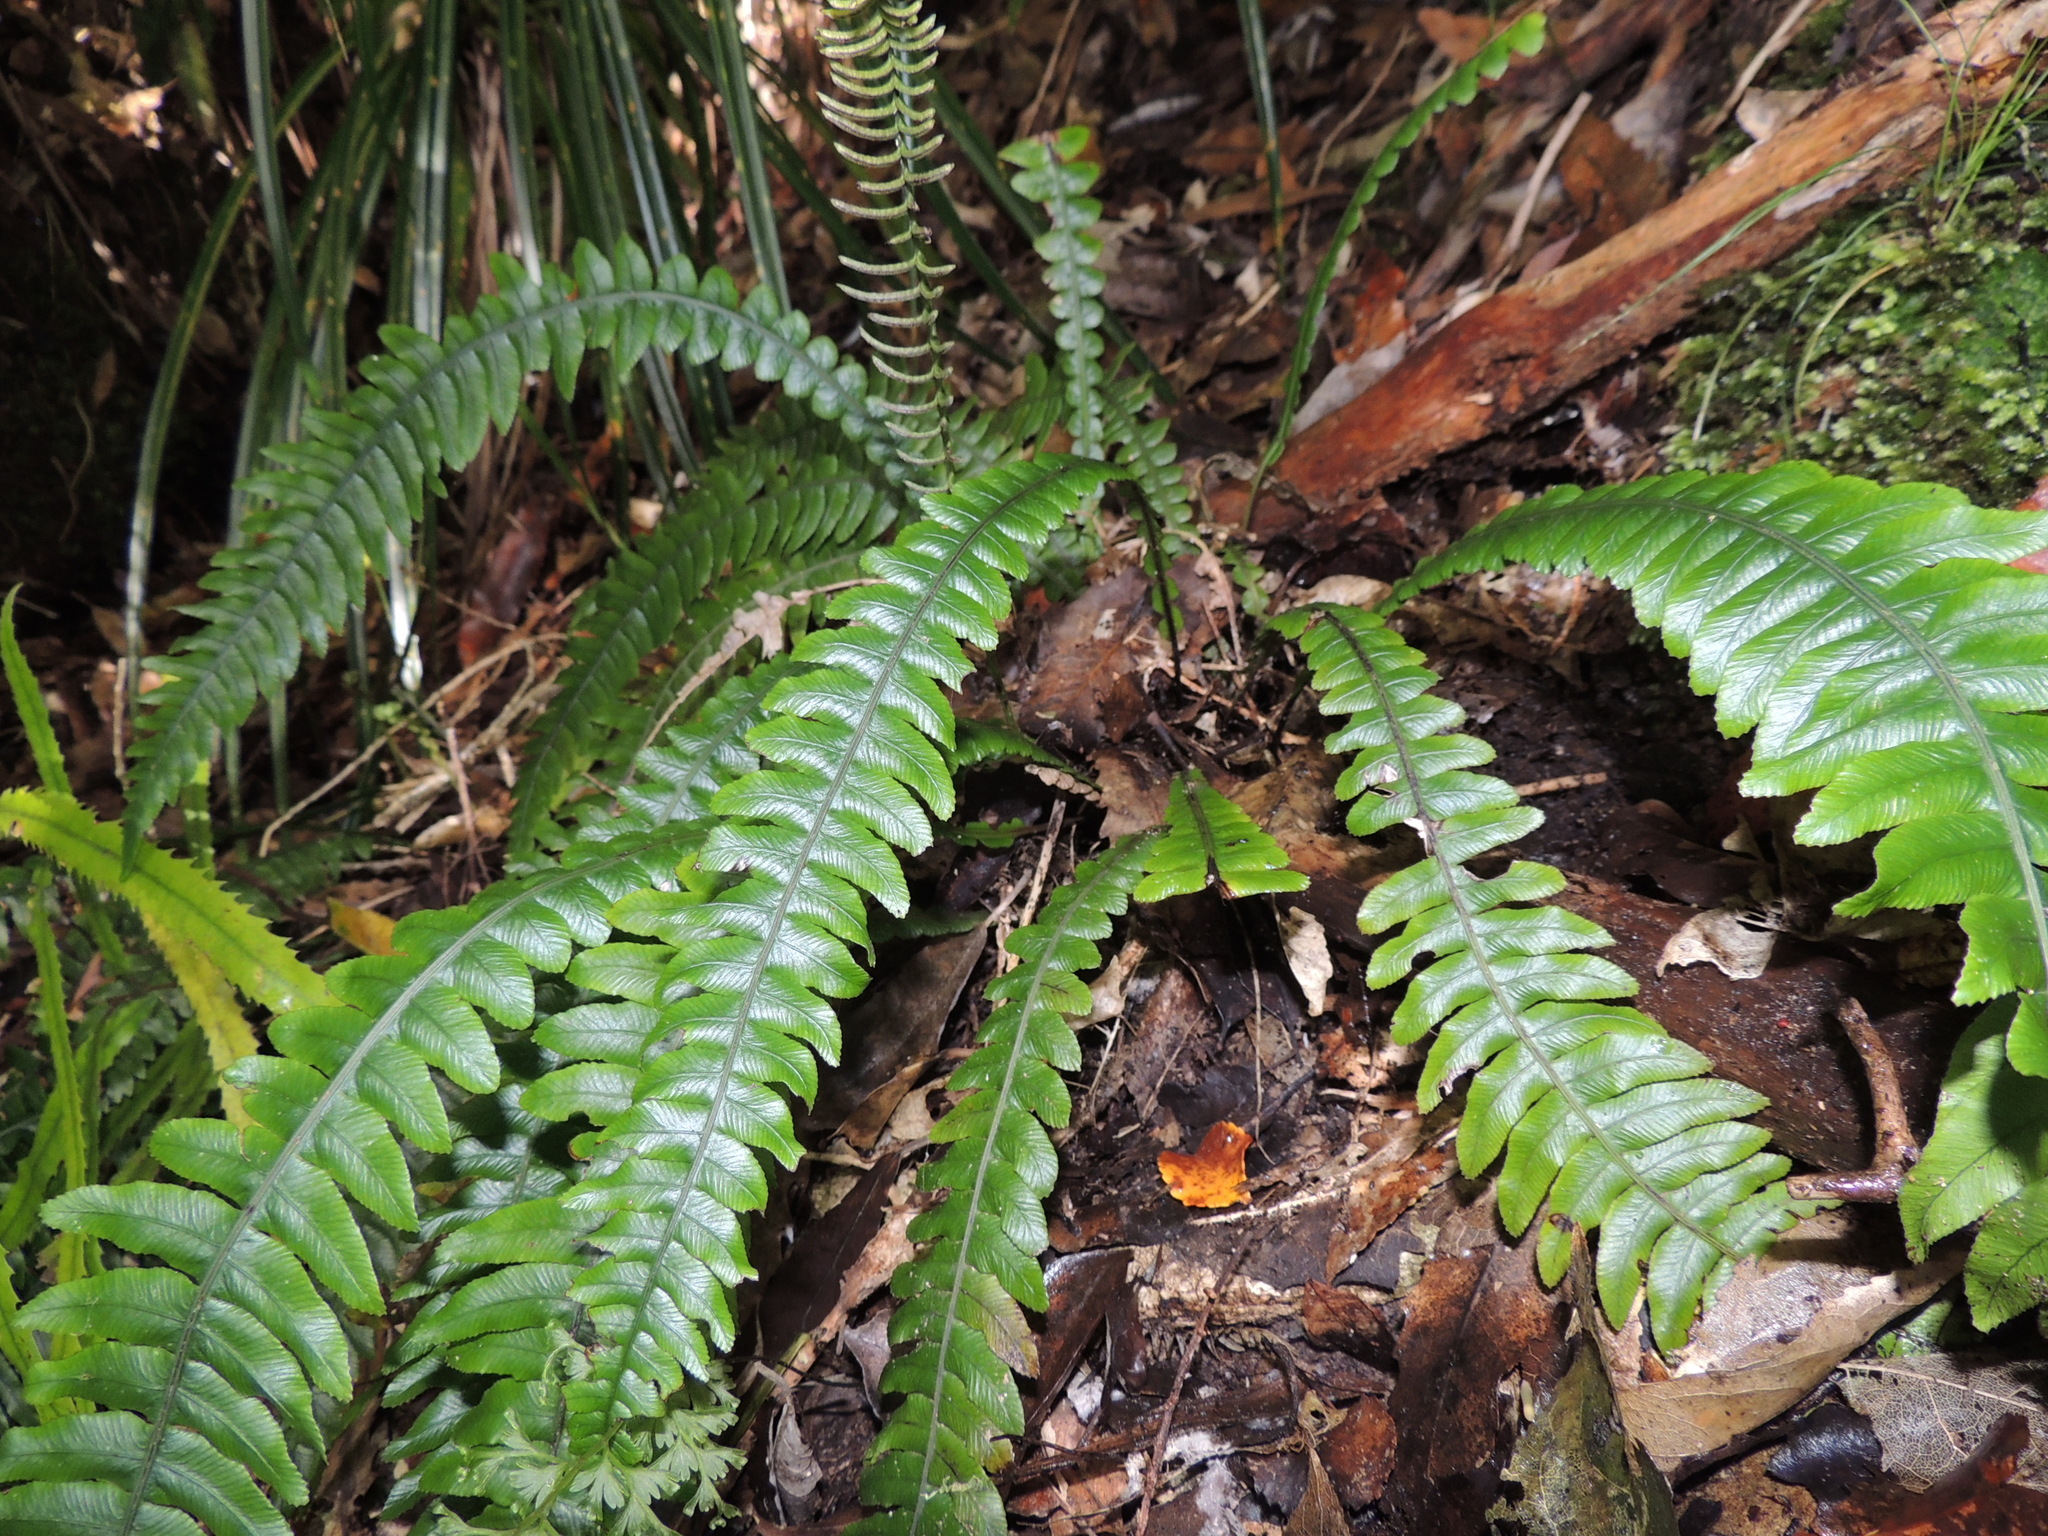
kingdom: Plantae
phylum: Tracheophyta
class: Polypodiopsida
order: Polypodiales
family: Blechnaceae
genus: Austroblechnum
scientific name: Austroblechnum lanceolatum
